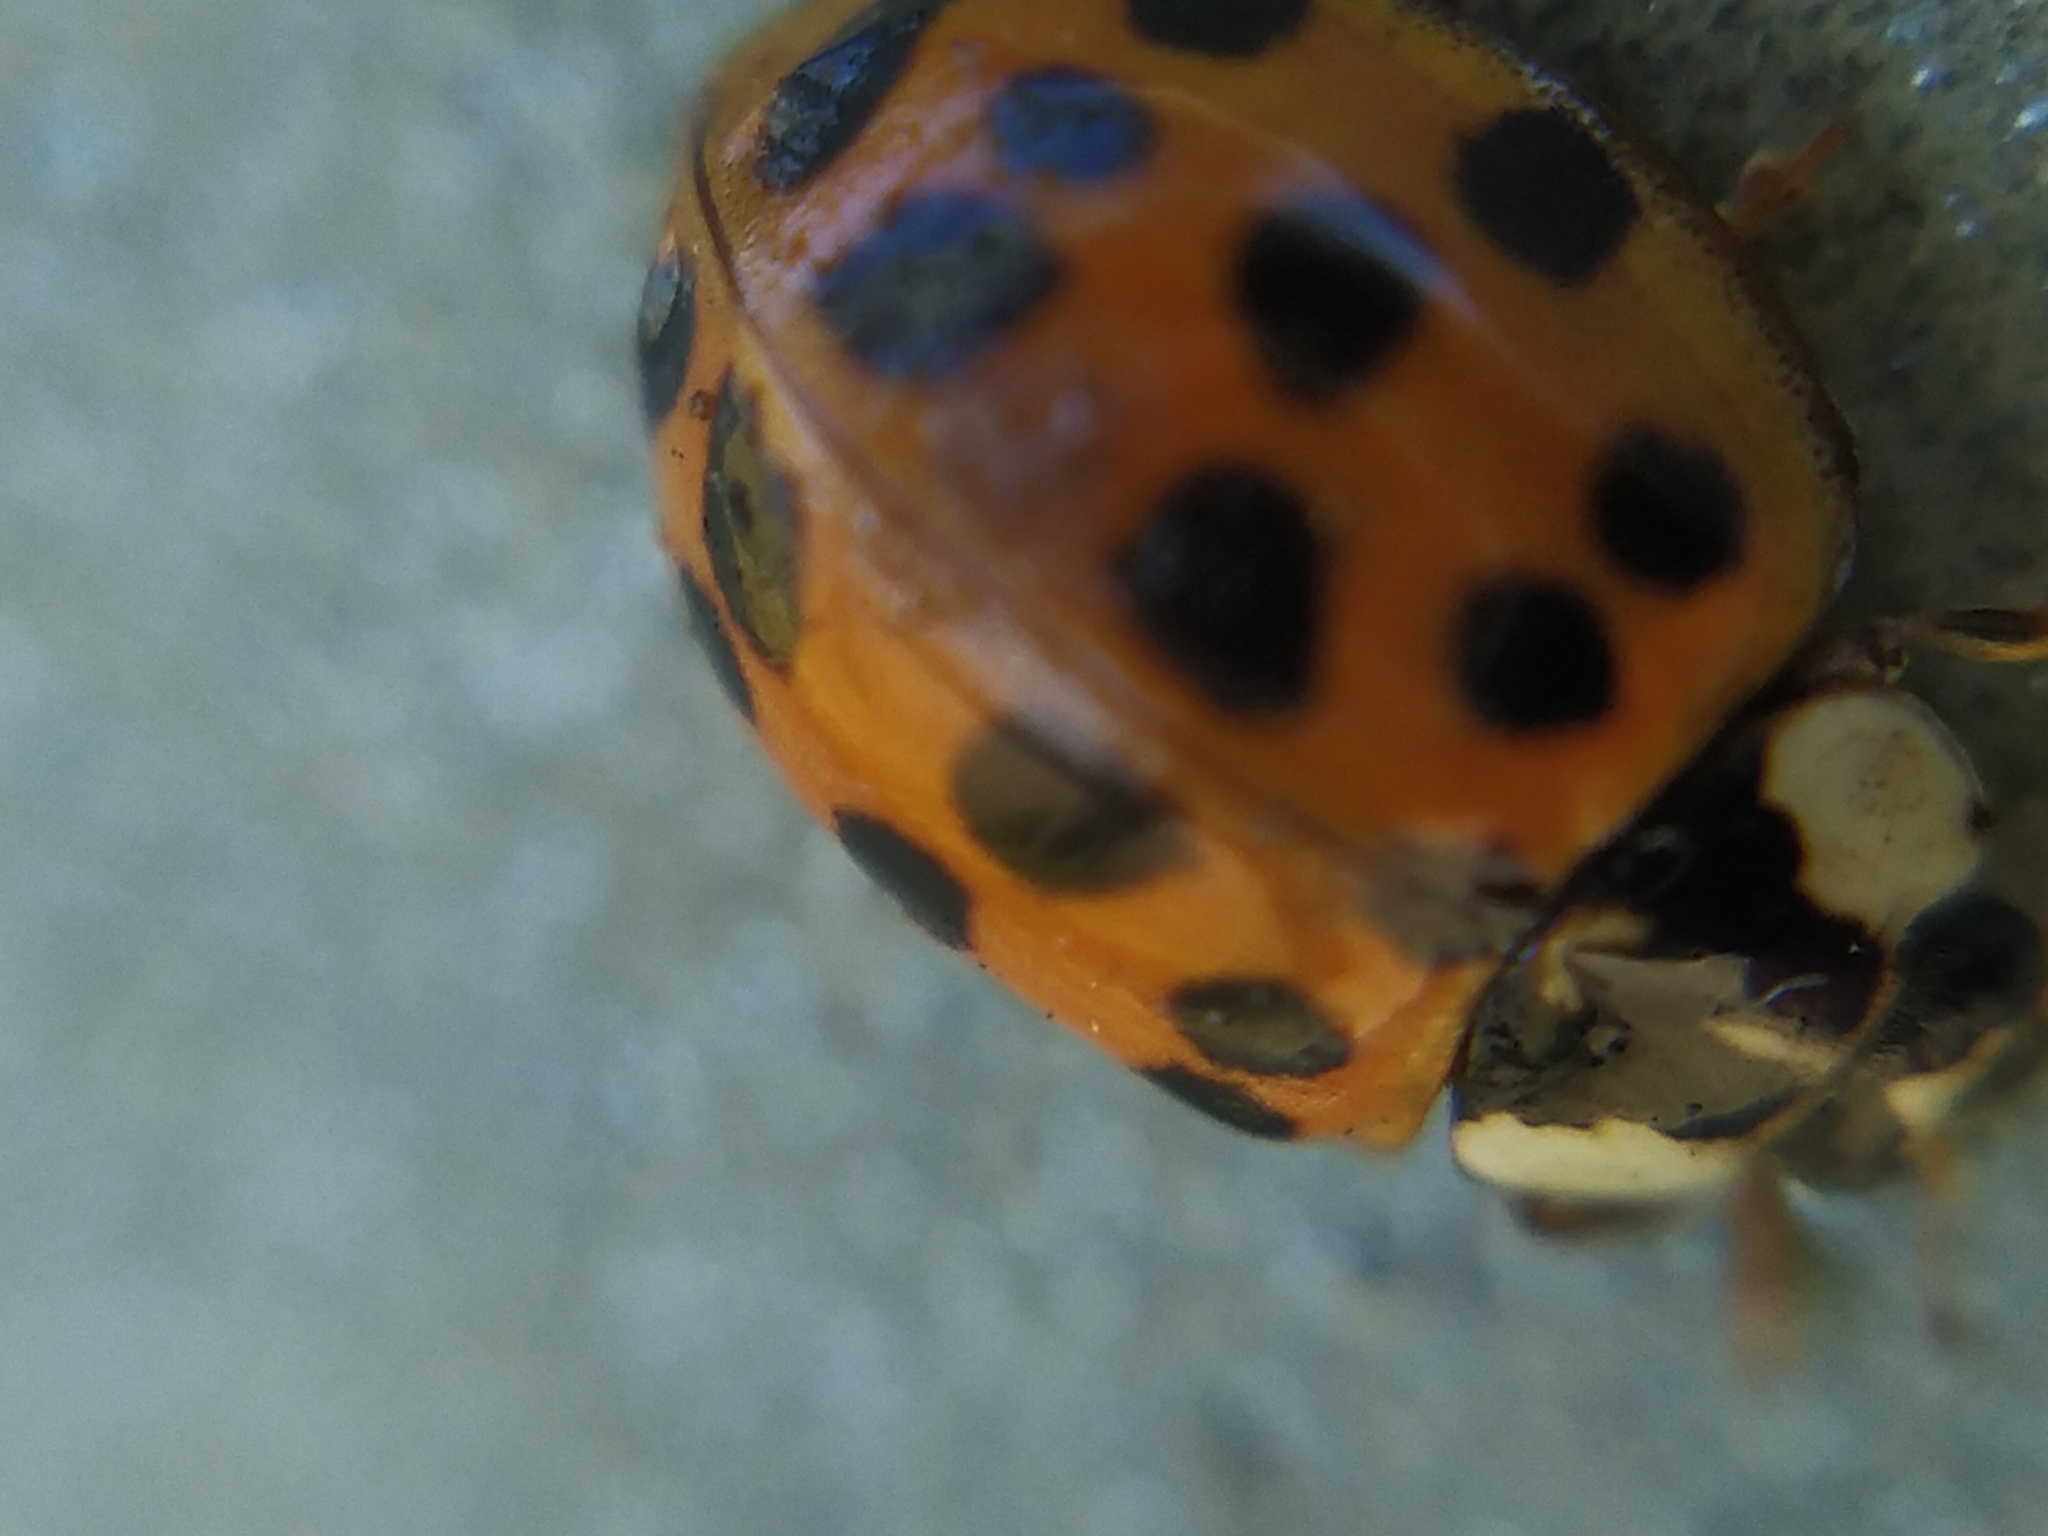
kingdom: Animalia
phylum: Arthropoda
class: Insecta
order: Coleoptera
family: Coccinellidae
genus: Harmonia
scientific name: Harmonia axyridis
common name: Harlequin ladybird
